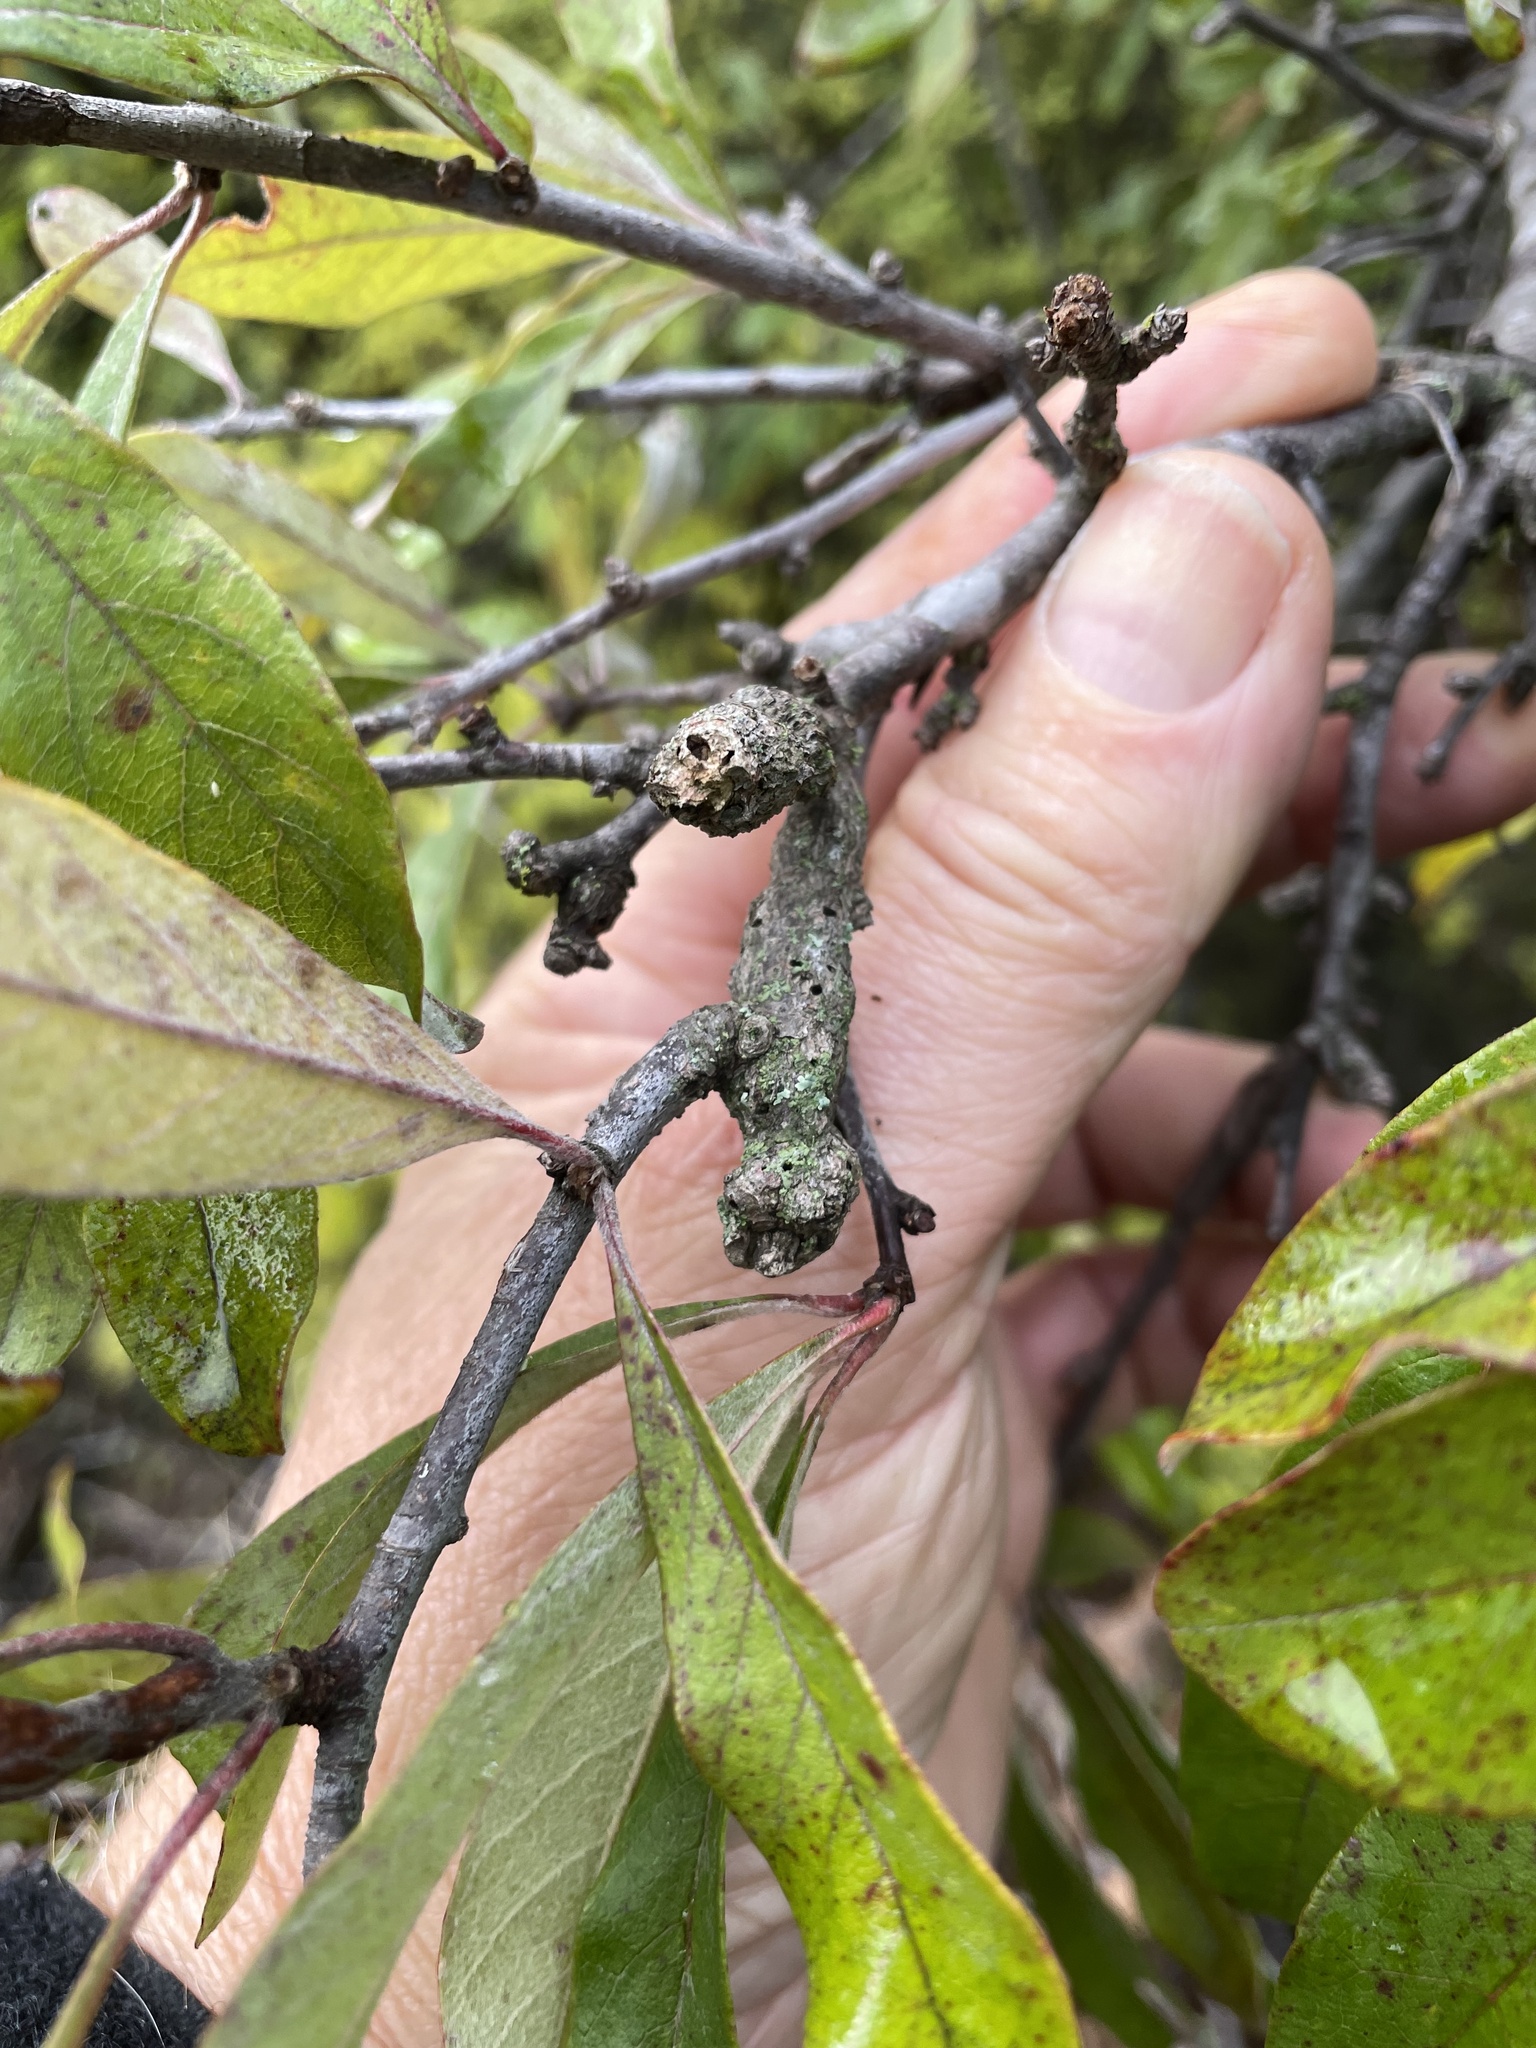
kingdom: Animalia
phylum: Arthropoda
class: Insecta
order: Diptera
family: Cecidomyiidae
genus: Bruggmanniella
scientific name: Bruggmanniella bumeliae
